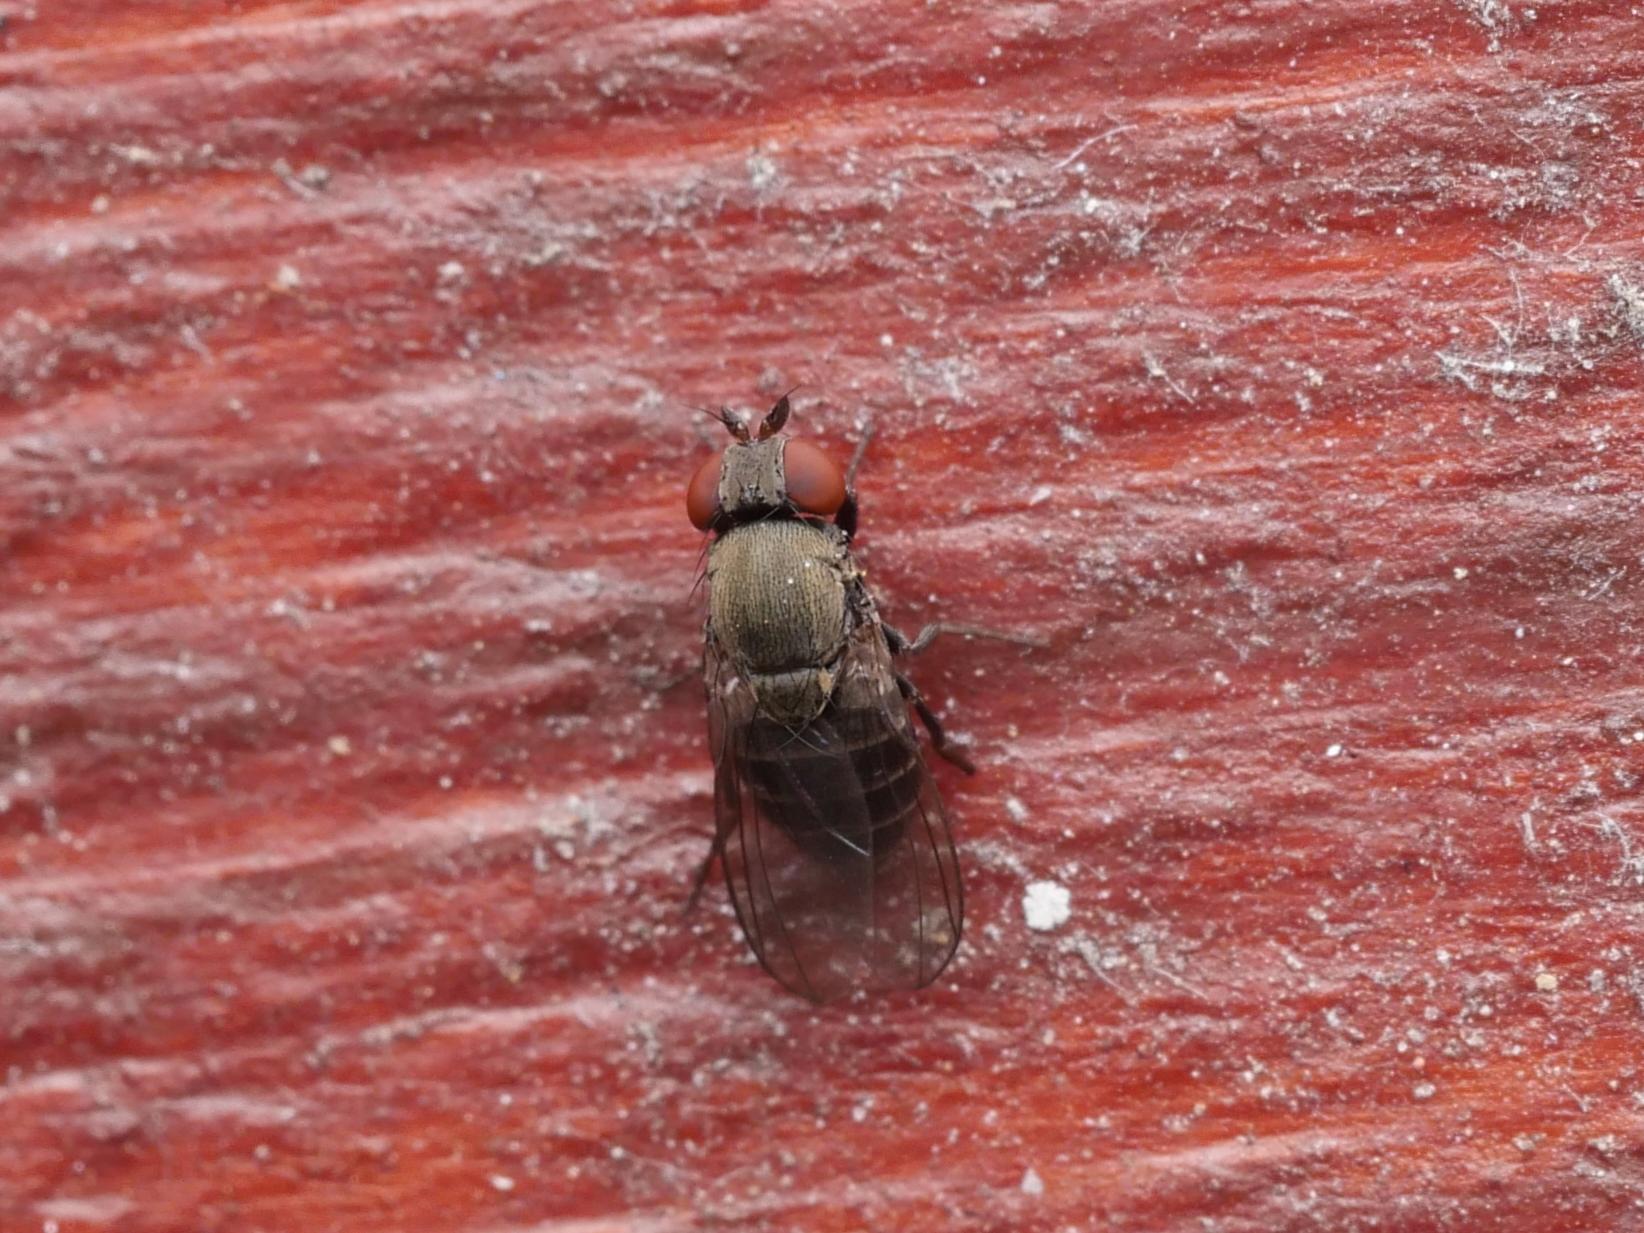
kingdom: Animalia
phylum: Arthropoda
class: Insecta
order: Diptera
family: Drosophilidae
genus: Cacoxenus
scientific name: Cacoxenus indagator
